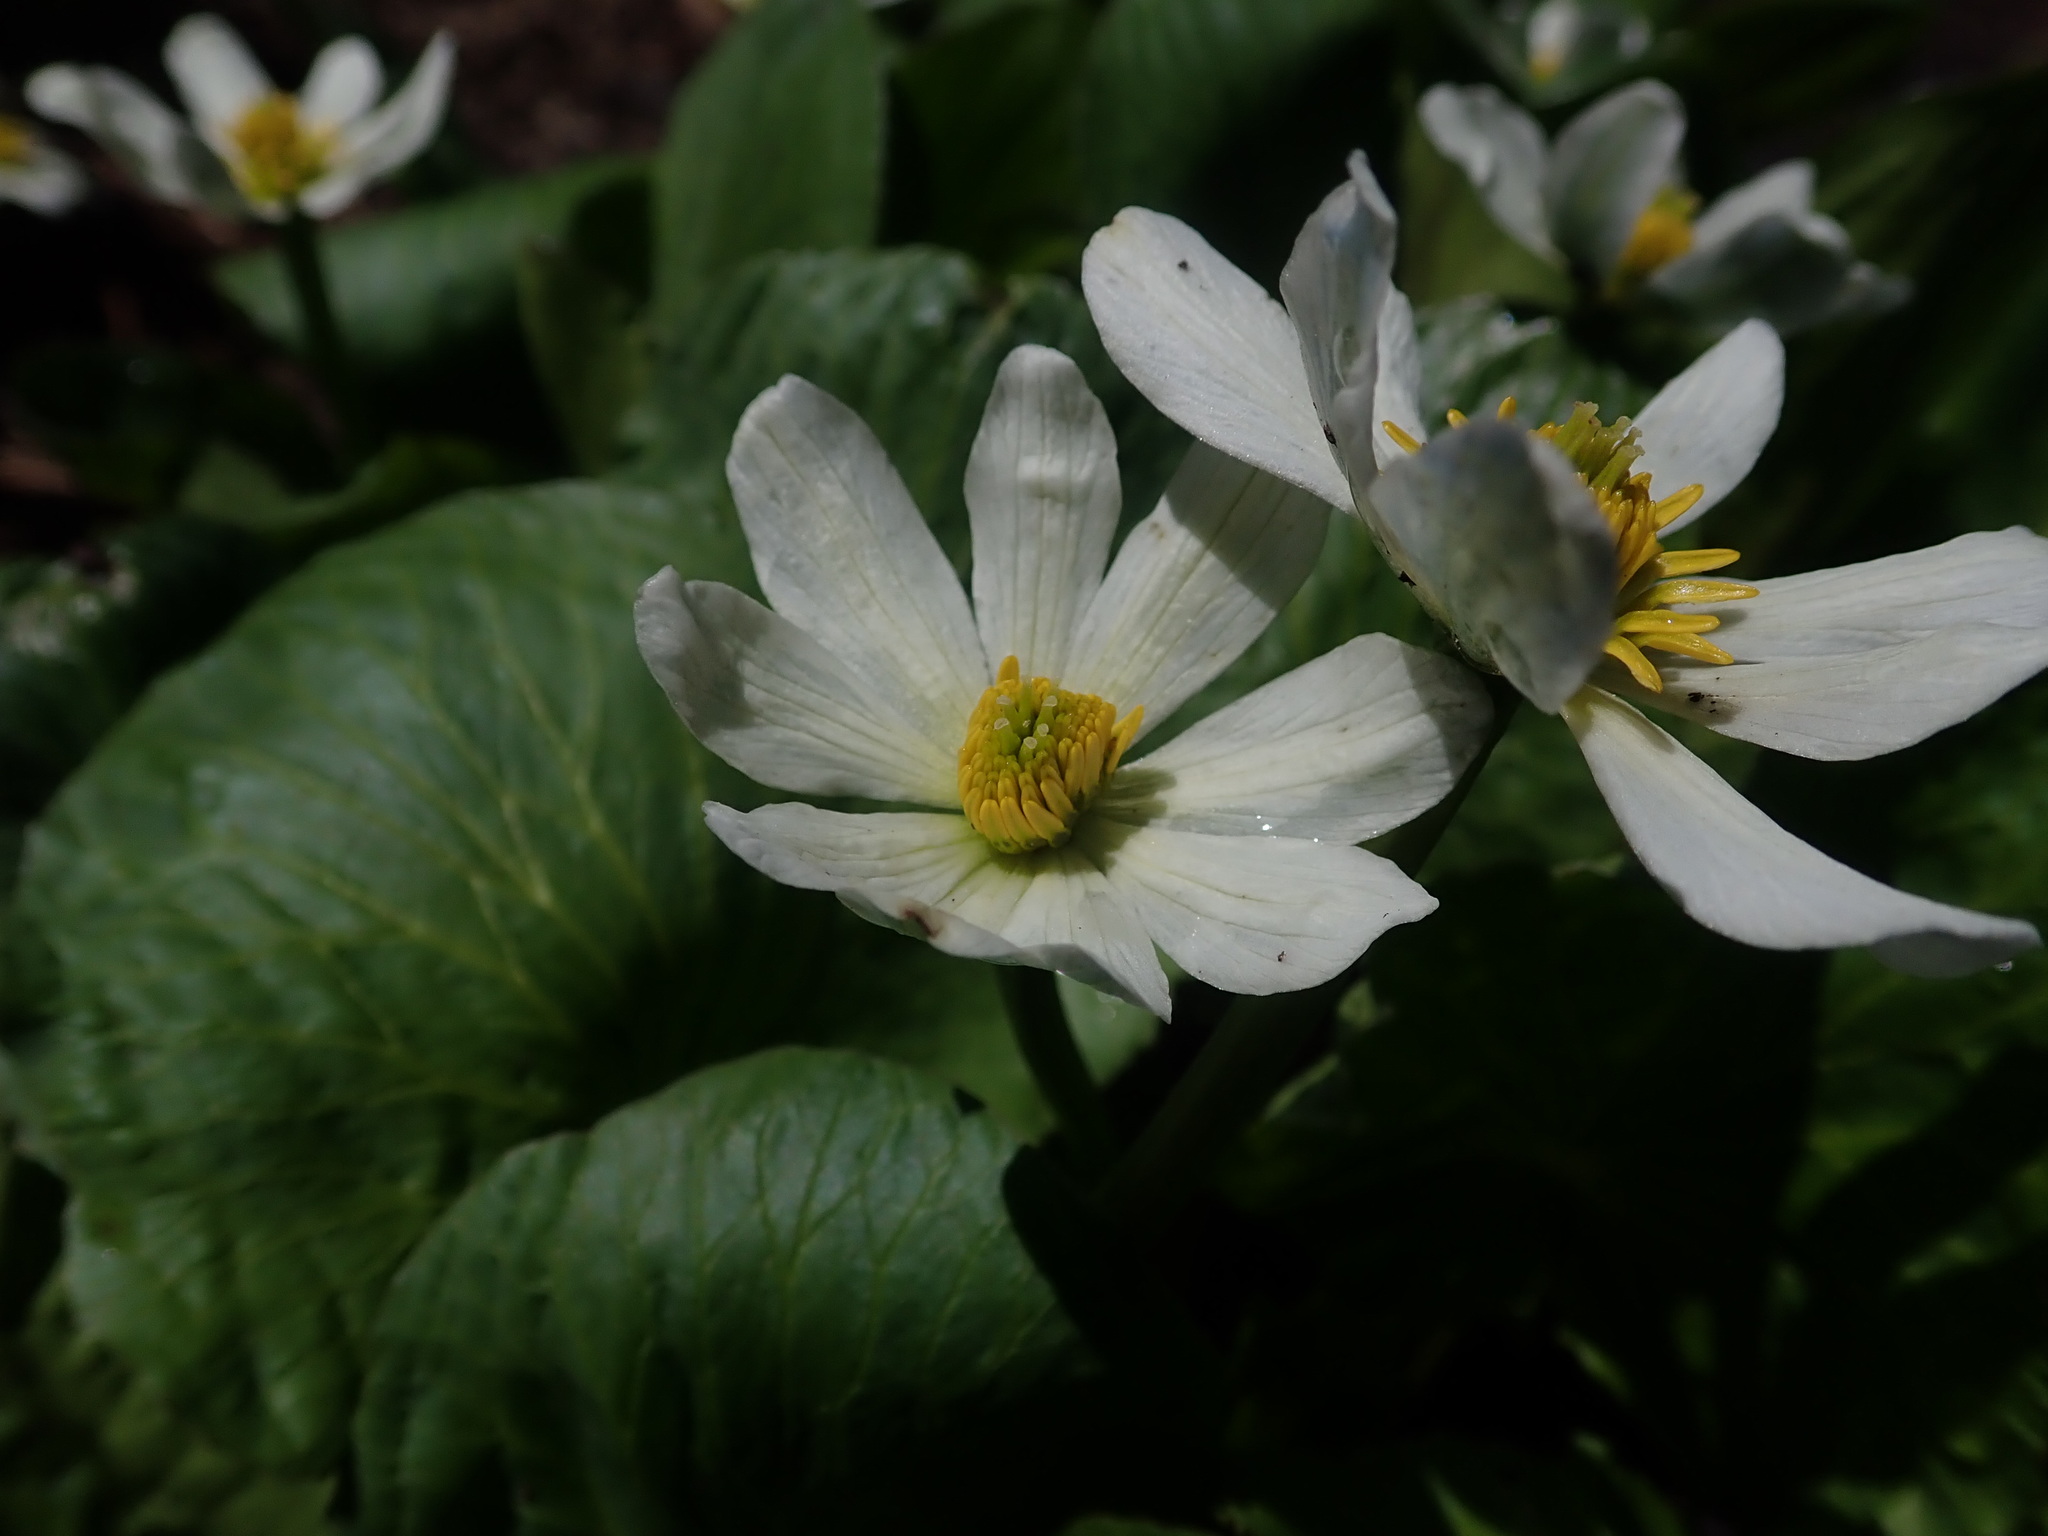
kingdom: Plantae
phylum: Tracheophyta
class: Magnoliopsida
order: Ranunculales
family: Ranunculaceae
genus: Caltha
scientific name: Caltha leptosepala
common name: Elkslip
